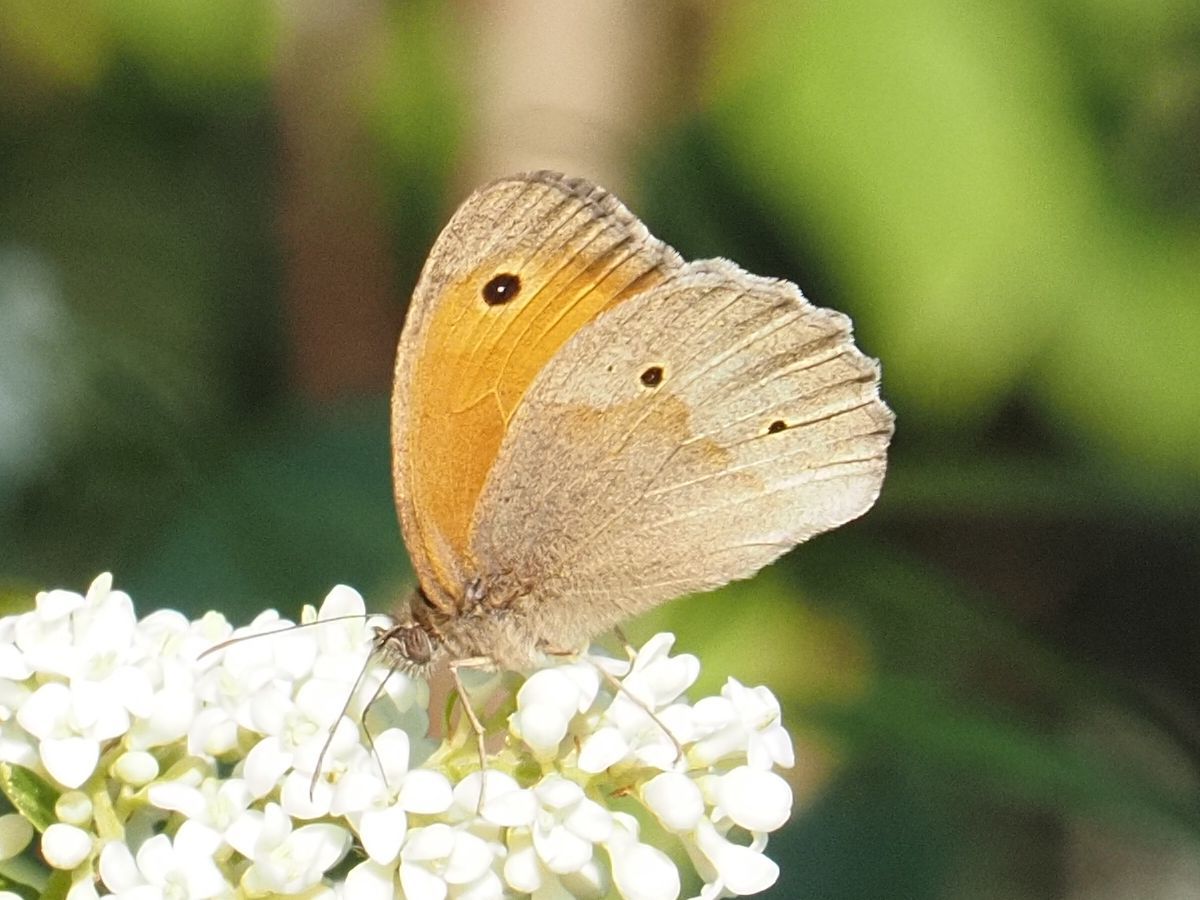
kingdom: Animalia
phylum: Arthropoda
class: Insecta
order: Lepidoptera
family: Nymphalidae
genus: Maniola
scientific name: Maniola jurtina
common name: Meadow brown
